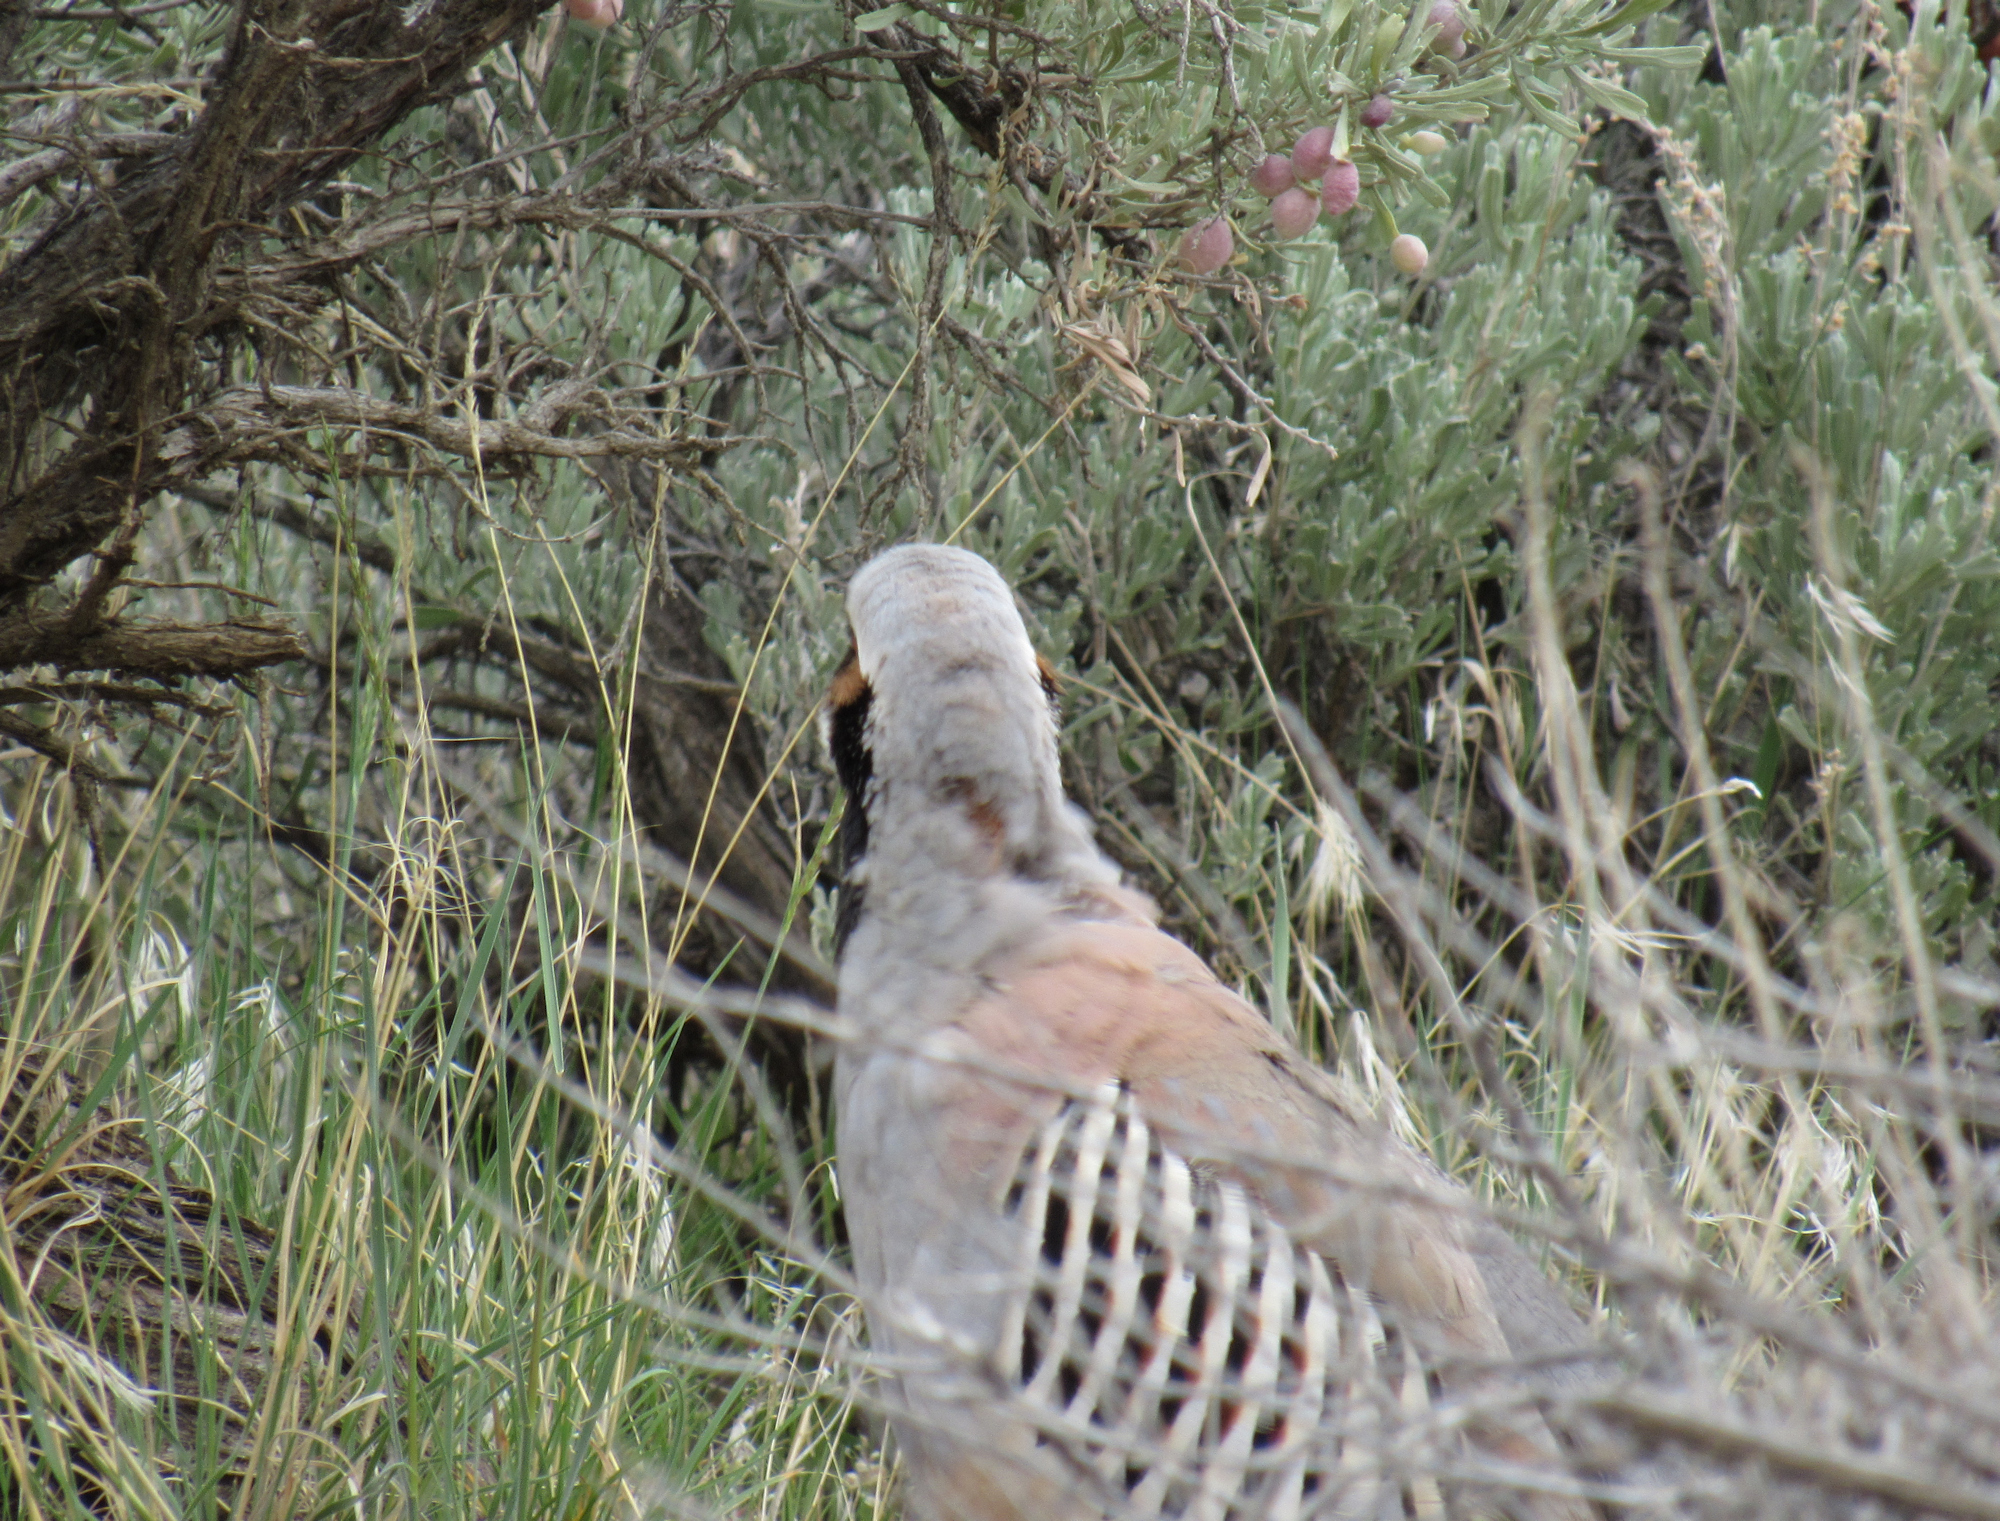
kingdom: Animalia
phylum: Chordata
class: Aves
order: Galliformes
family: Phasianidae
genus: Alectoris
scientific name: Alectoris chukar
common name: Chukar
